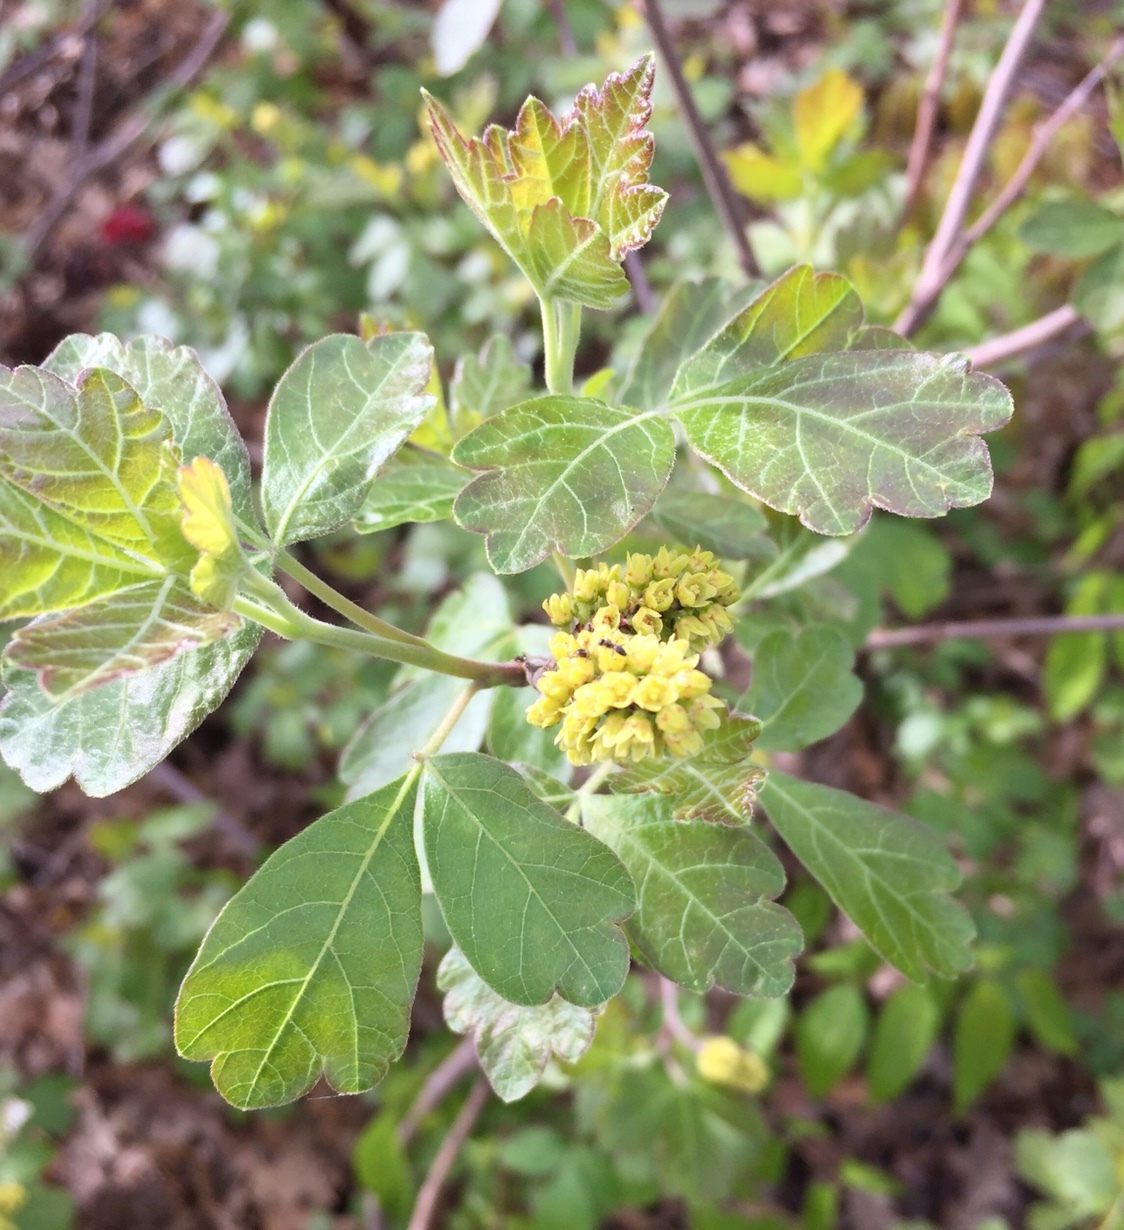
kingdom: Plantae
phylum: Tracheophyta
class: Magnoliopsida
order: Sapindales
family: Anacardiaceae
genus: Rhus
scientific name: Rhus aromatica
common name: Aromatic sumac
